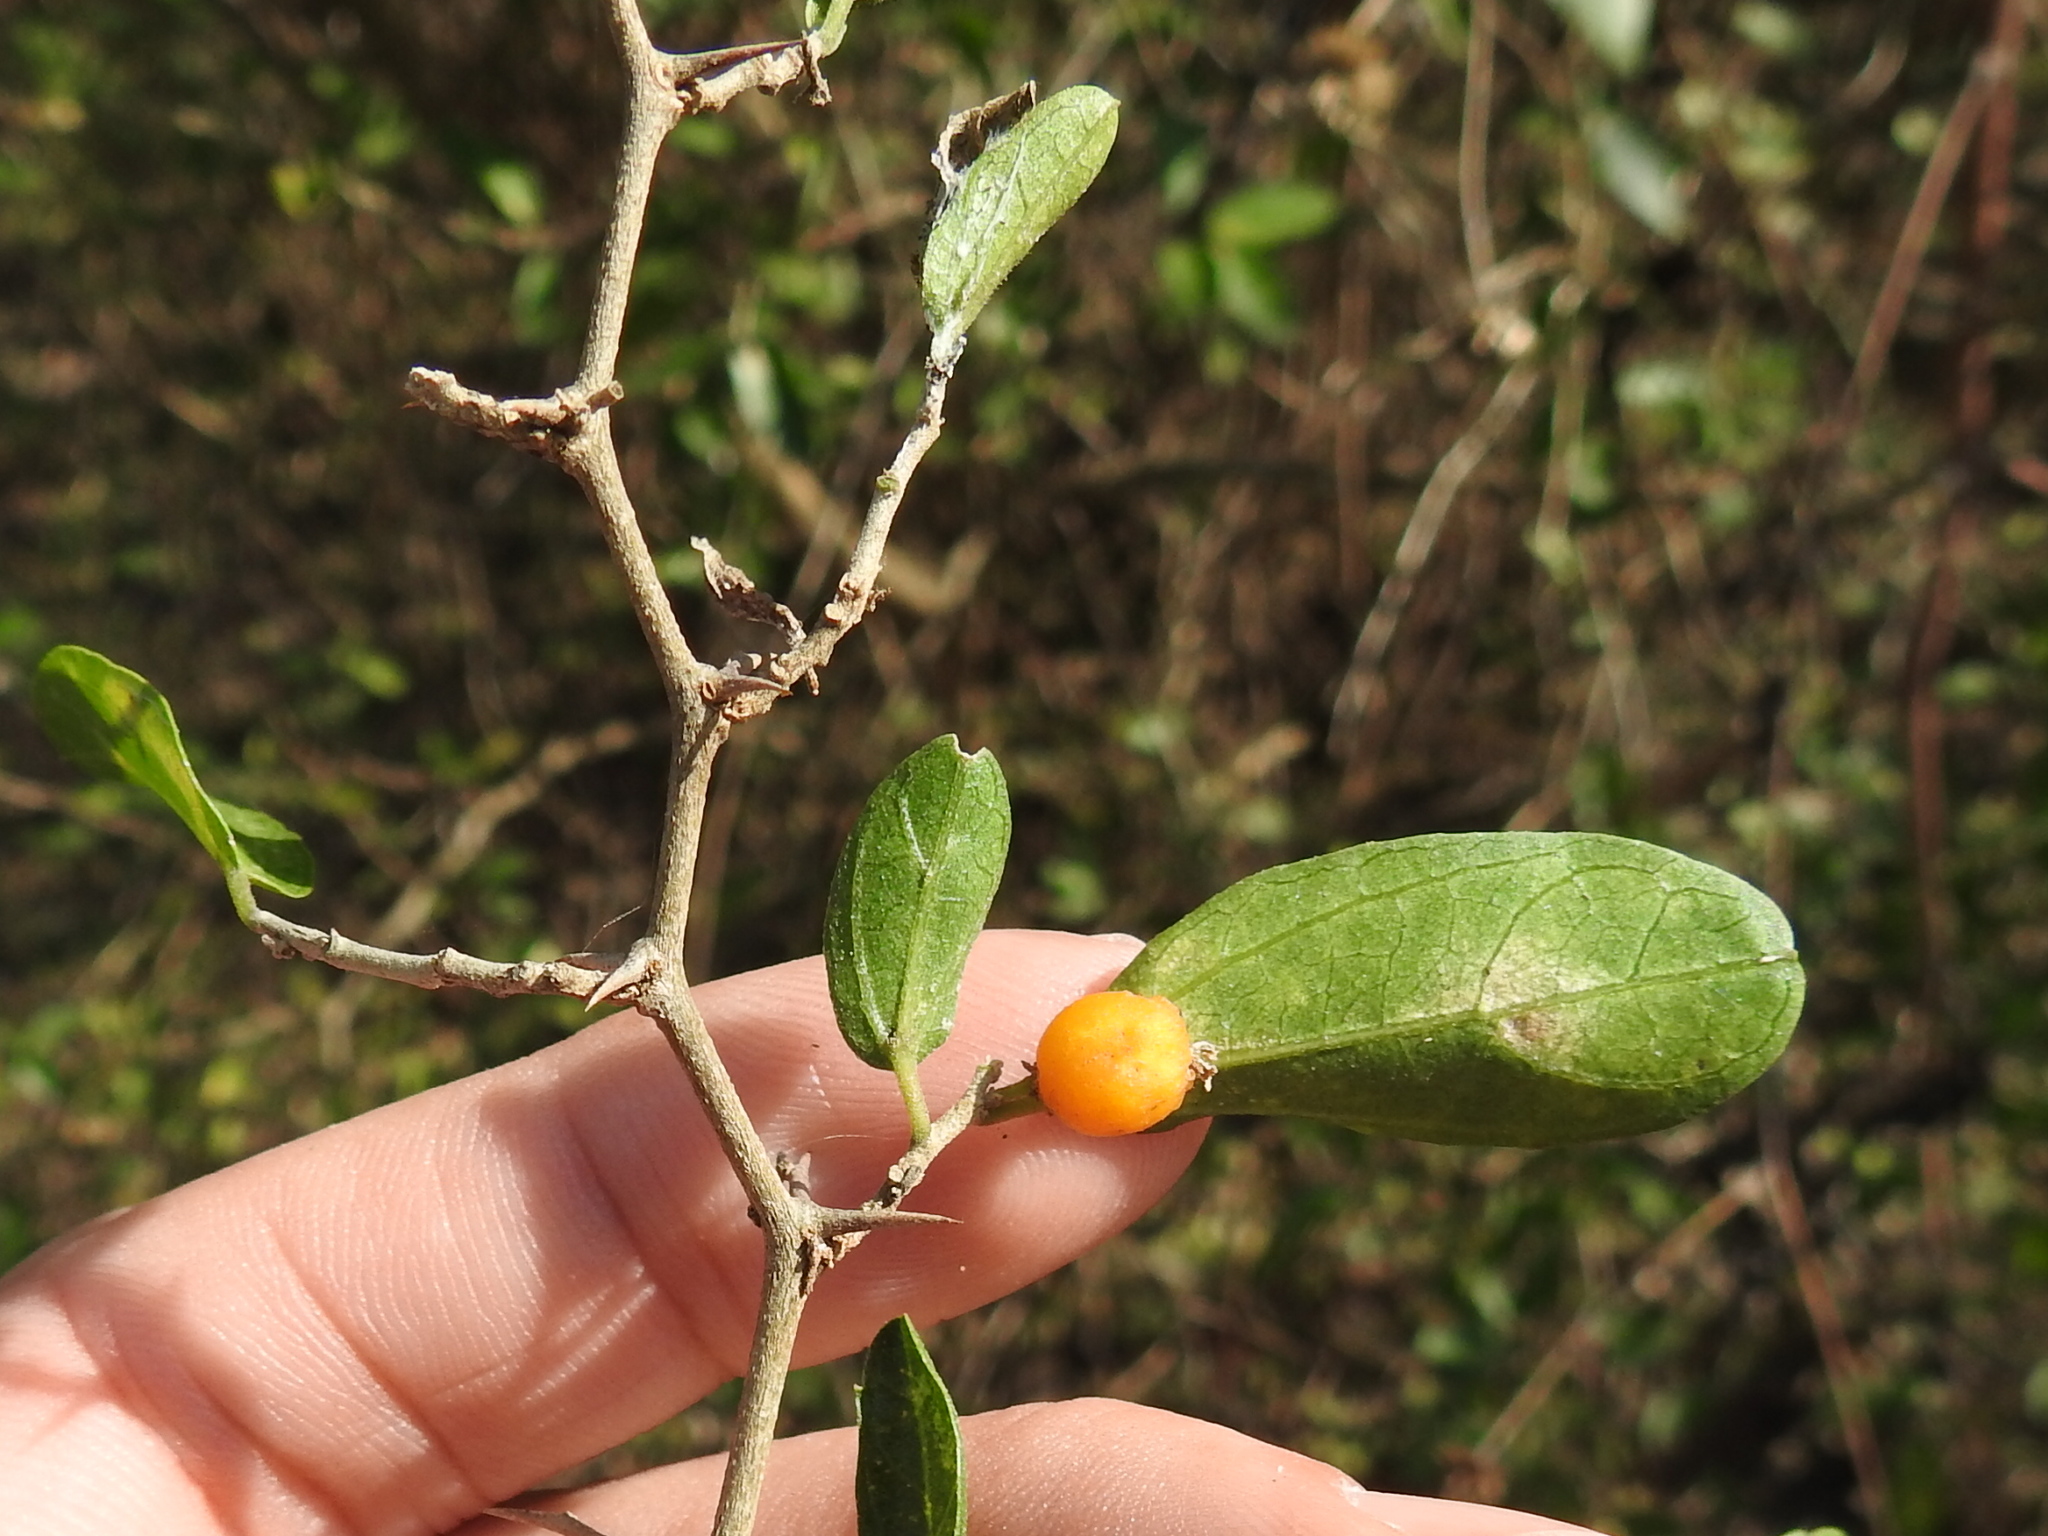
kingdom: Plantae
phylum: Tracheophyta
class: Magnoliopsida
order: Rosales
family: Cannabaceae
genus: Celtis
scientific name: Celtis pallida
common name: Desert hackberry
